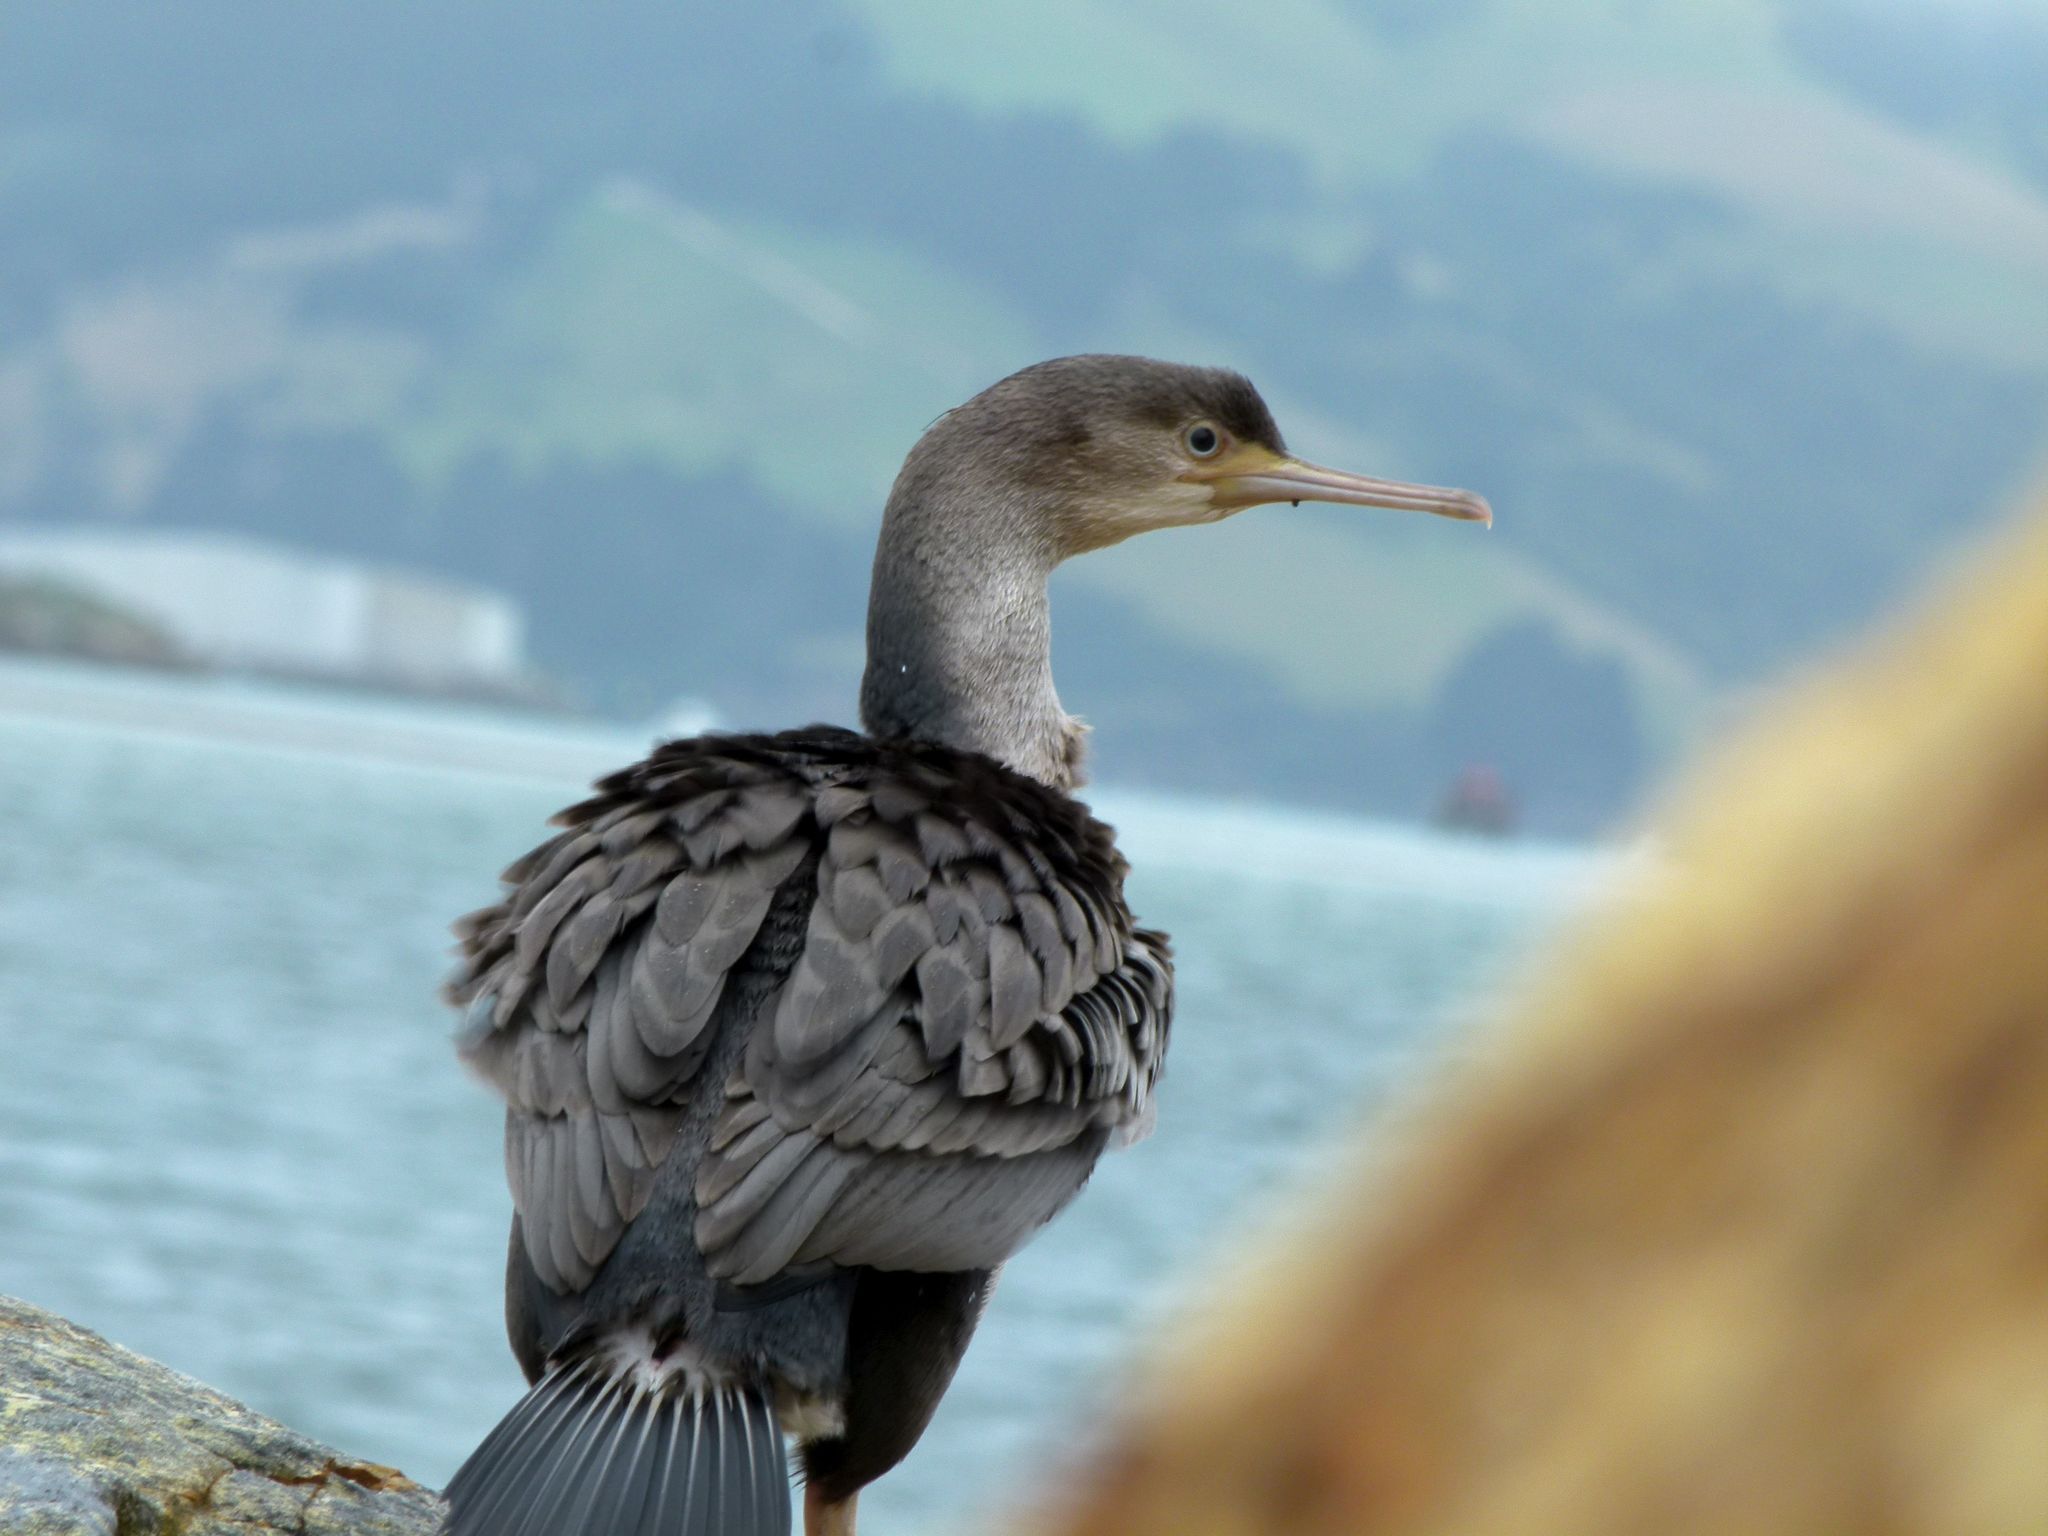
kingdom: Animalia
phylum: Chordata
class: Aves
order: Suliformes
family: Phalacrocoracidae
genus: Phalacrocorax
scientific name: Phalacrocorax punctatus
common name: Spotted shag
